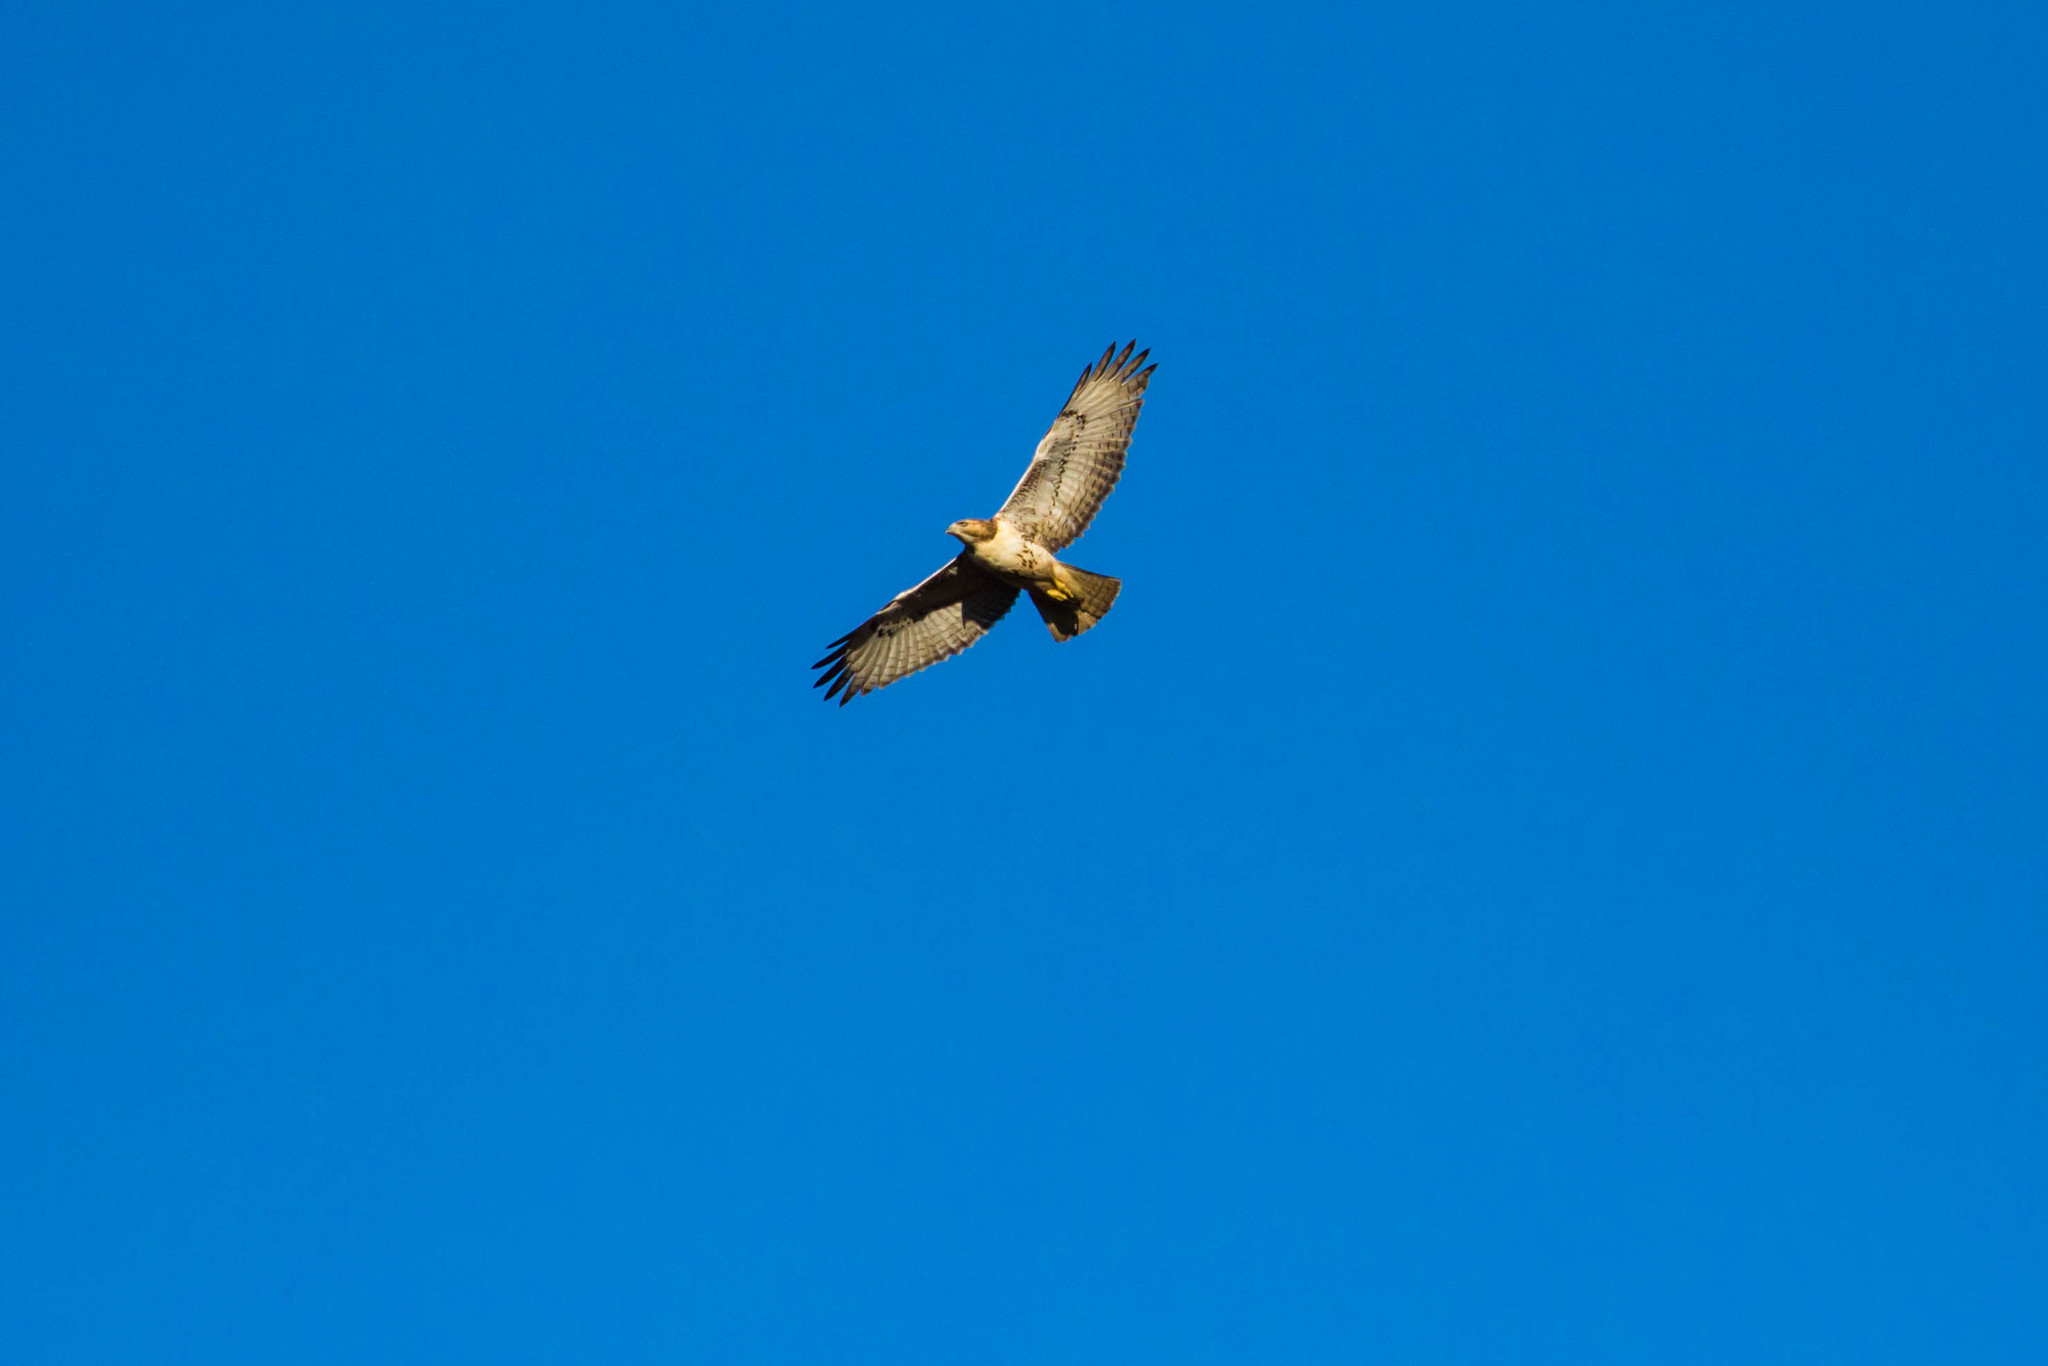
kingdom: Animalia
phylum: Chordata
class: Aves
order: Accipitriformes
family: Accipitridae
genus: Buteo
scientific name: Buteo jamaicensis
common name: Red-tailed hawk
